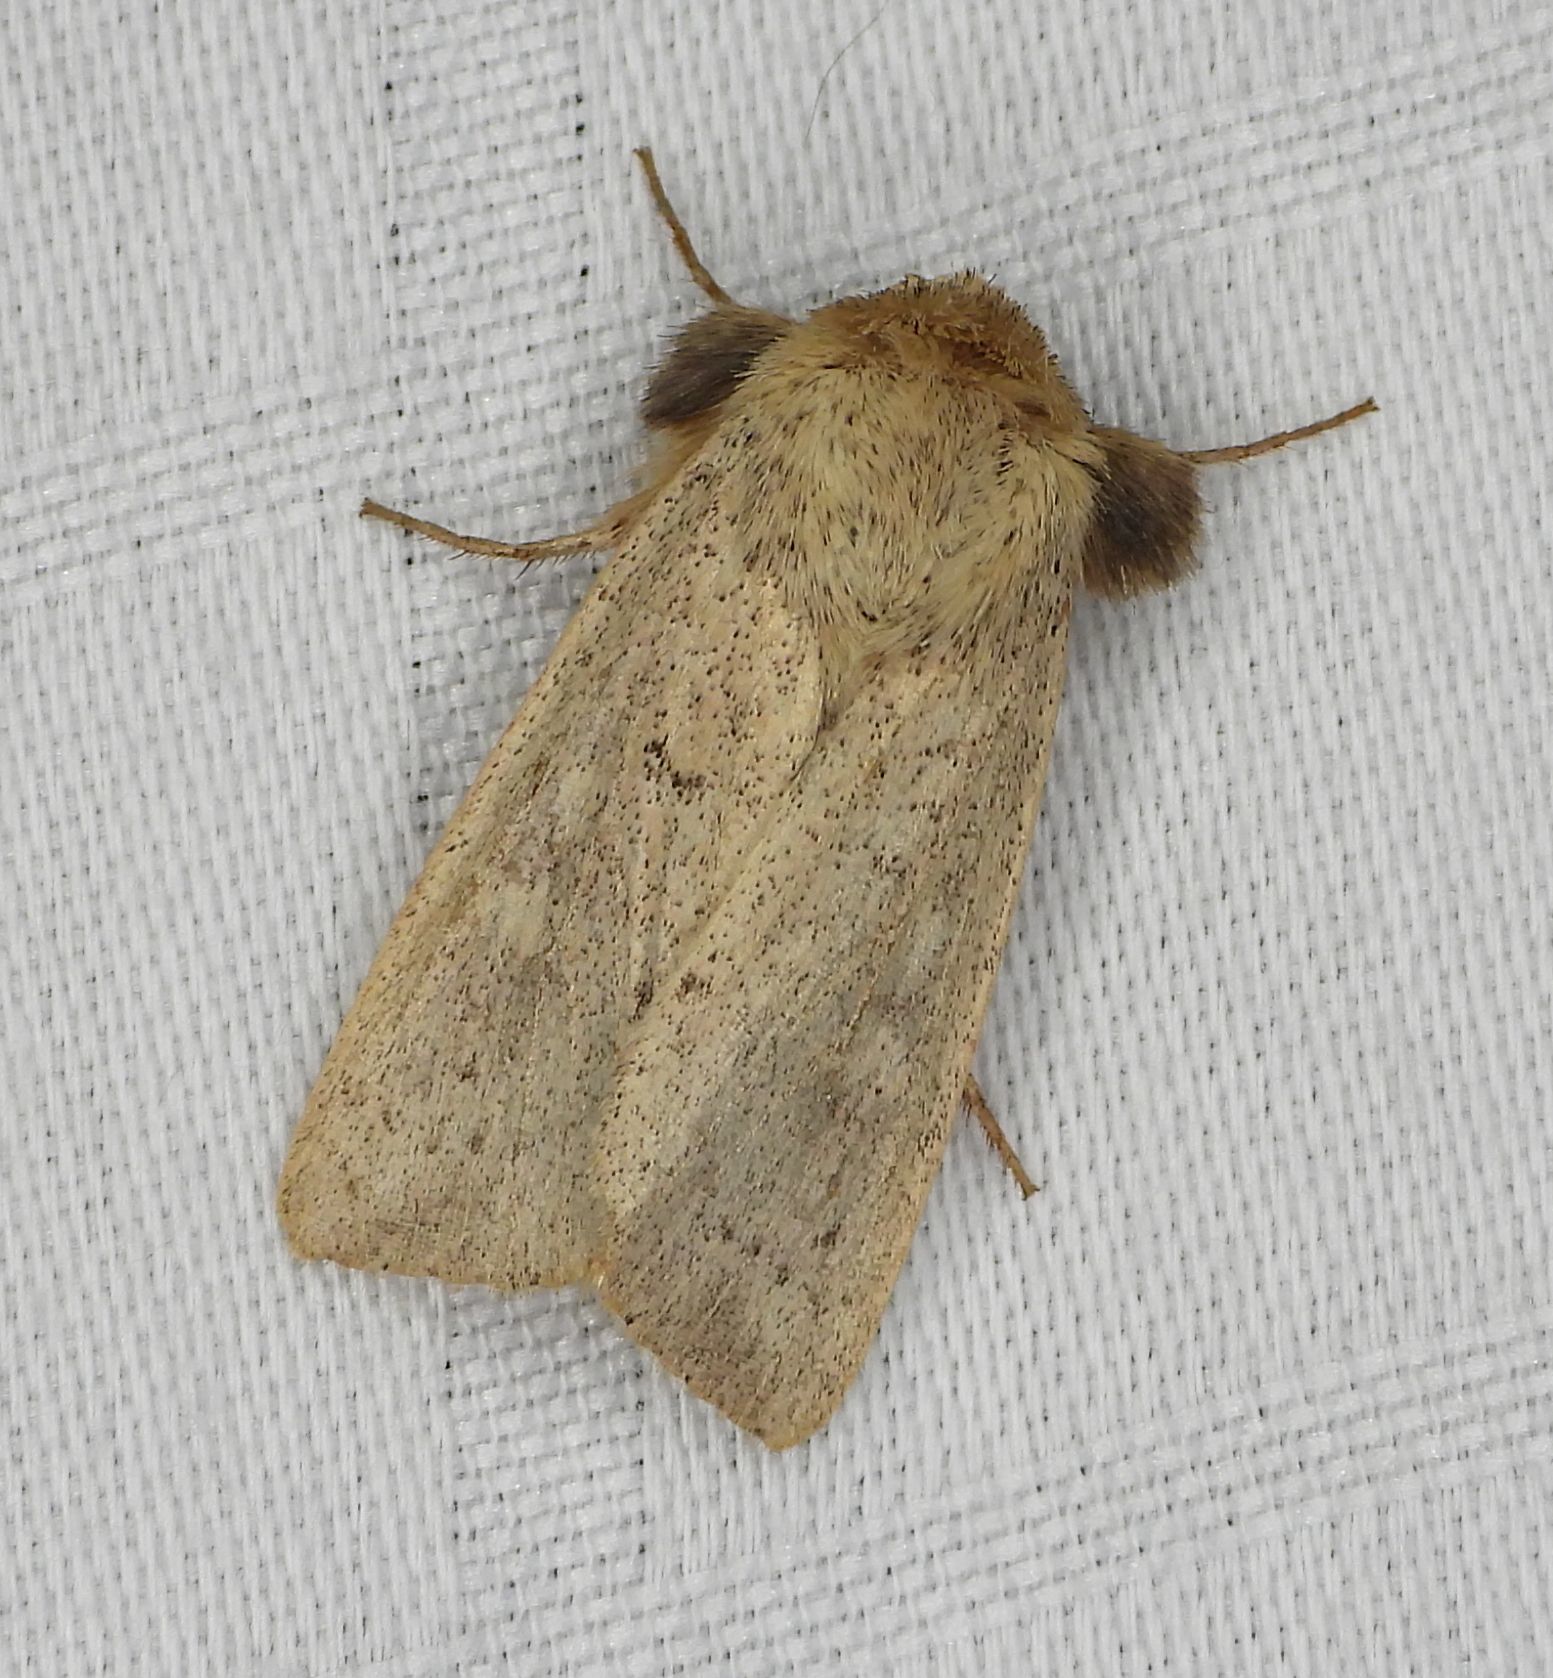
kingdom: Animalia
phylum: Arthropoda
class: Insecta
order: Lepidoptera
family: Noctuidae
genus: Leucania
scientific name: Leucania ursula
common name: Ursula wainscot
